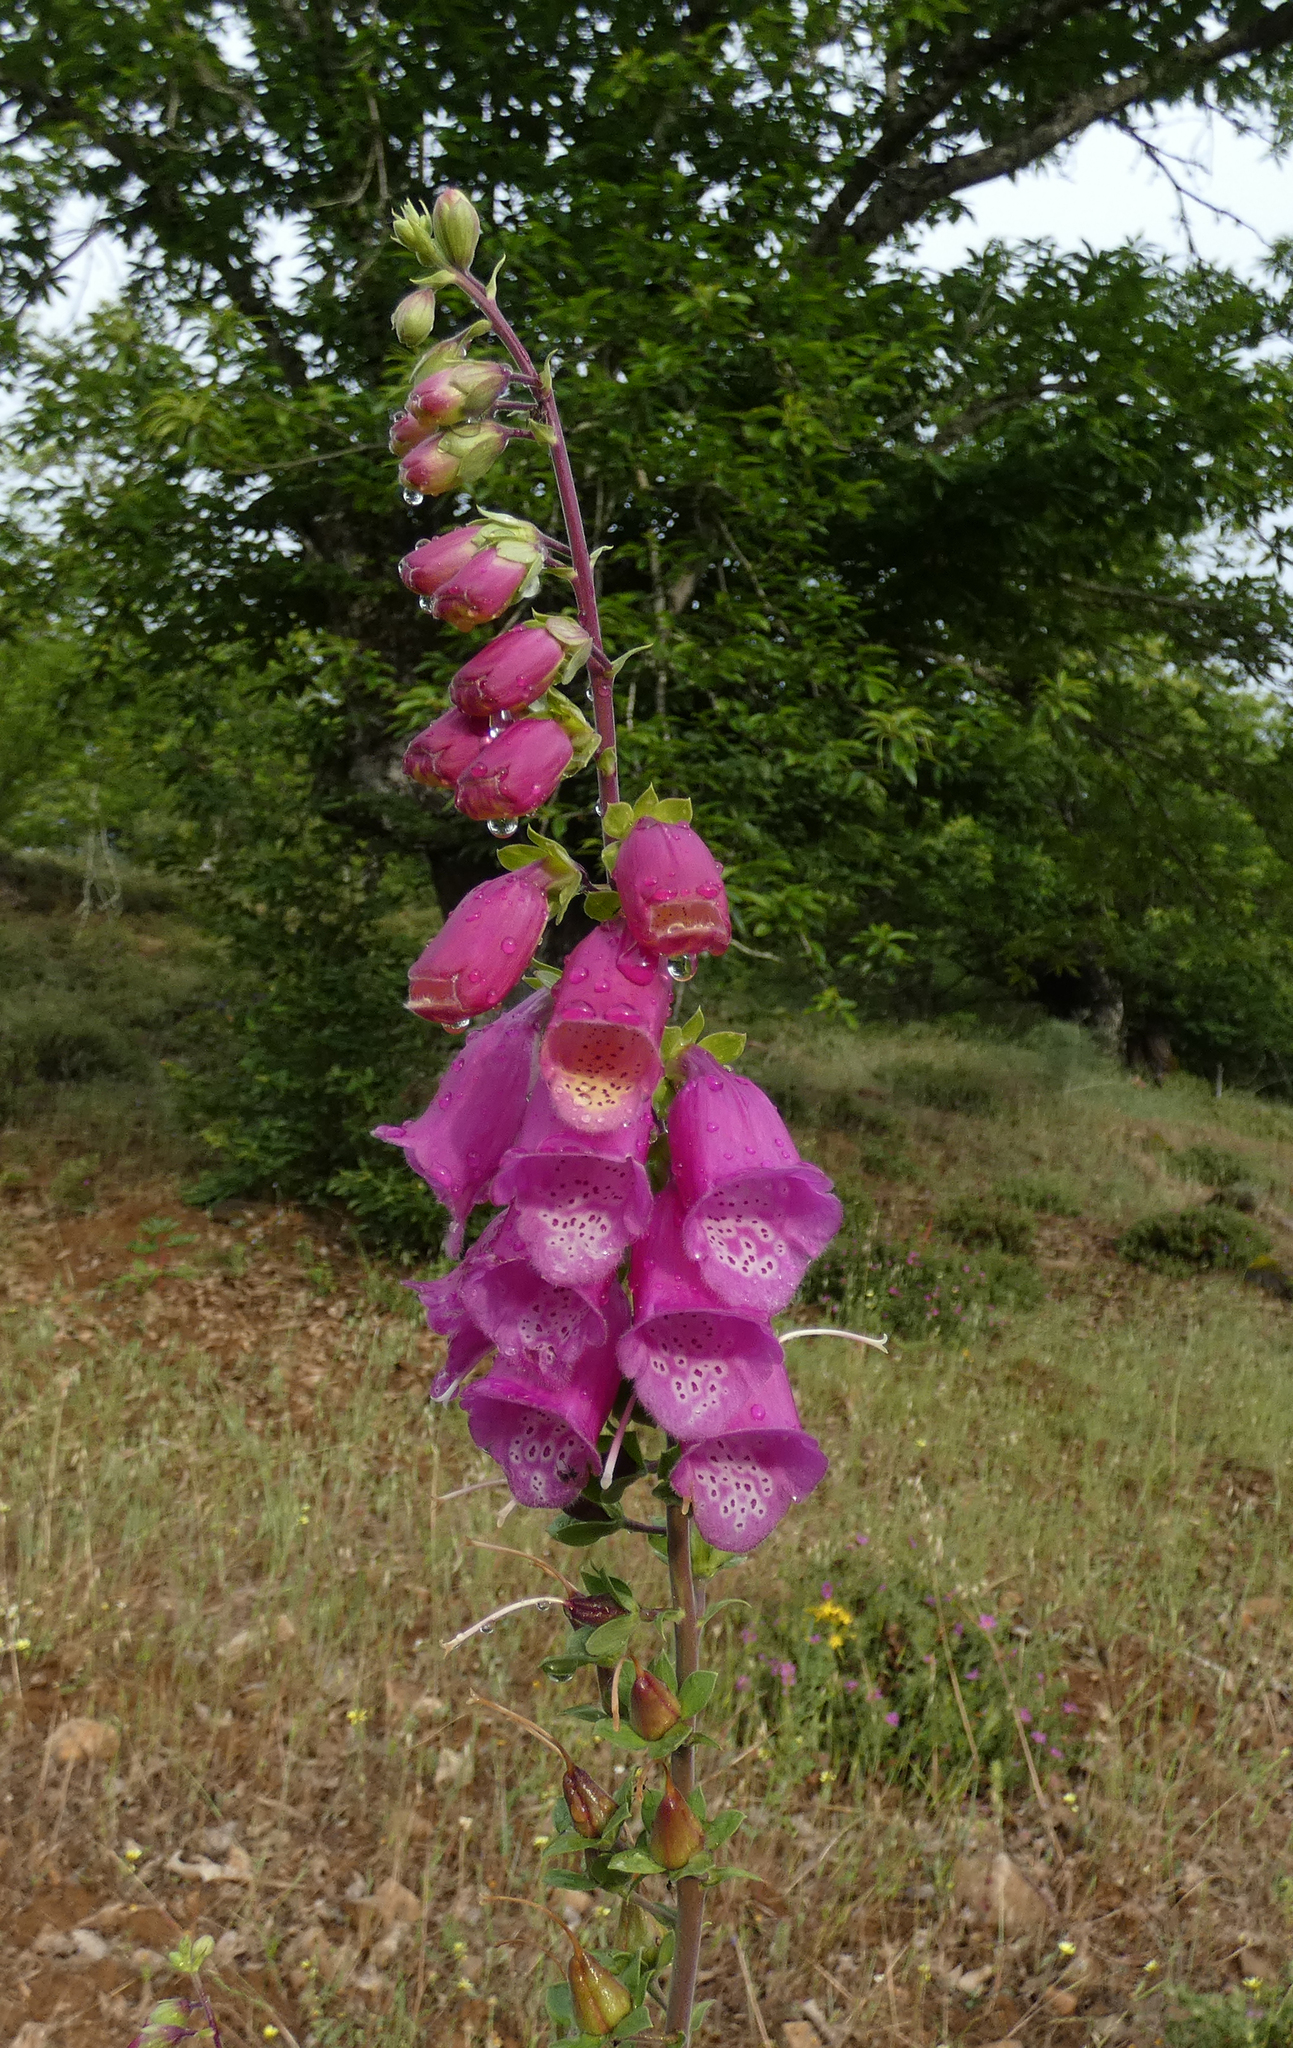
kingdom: Plantae
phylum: Tracheophyta
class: Magnoliopsida
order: Lamiales
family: Plantaginaceae
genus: Digitalis
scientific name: Digitalis purpurea
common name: Foxglove
